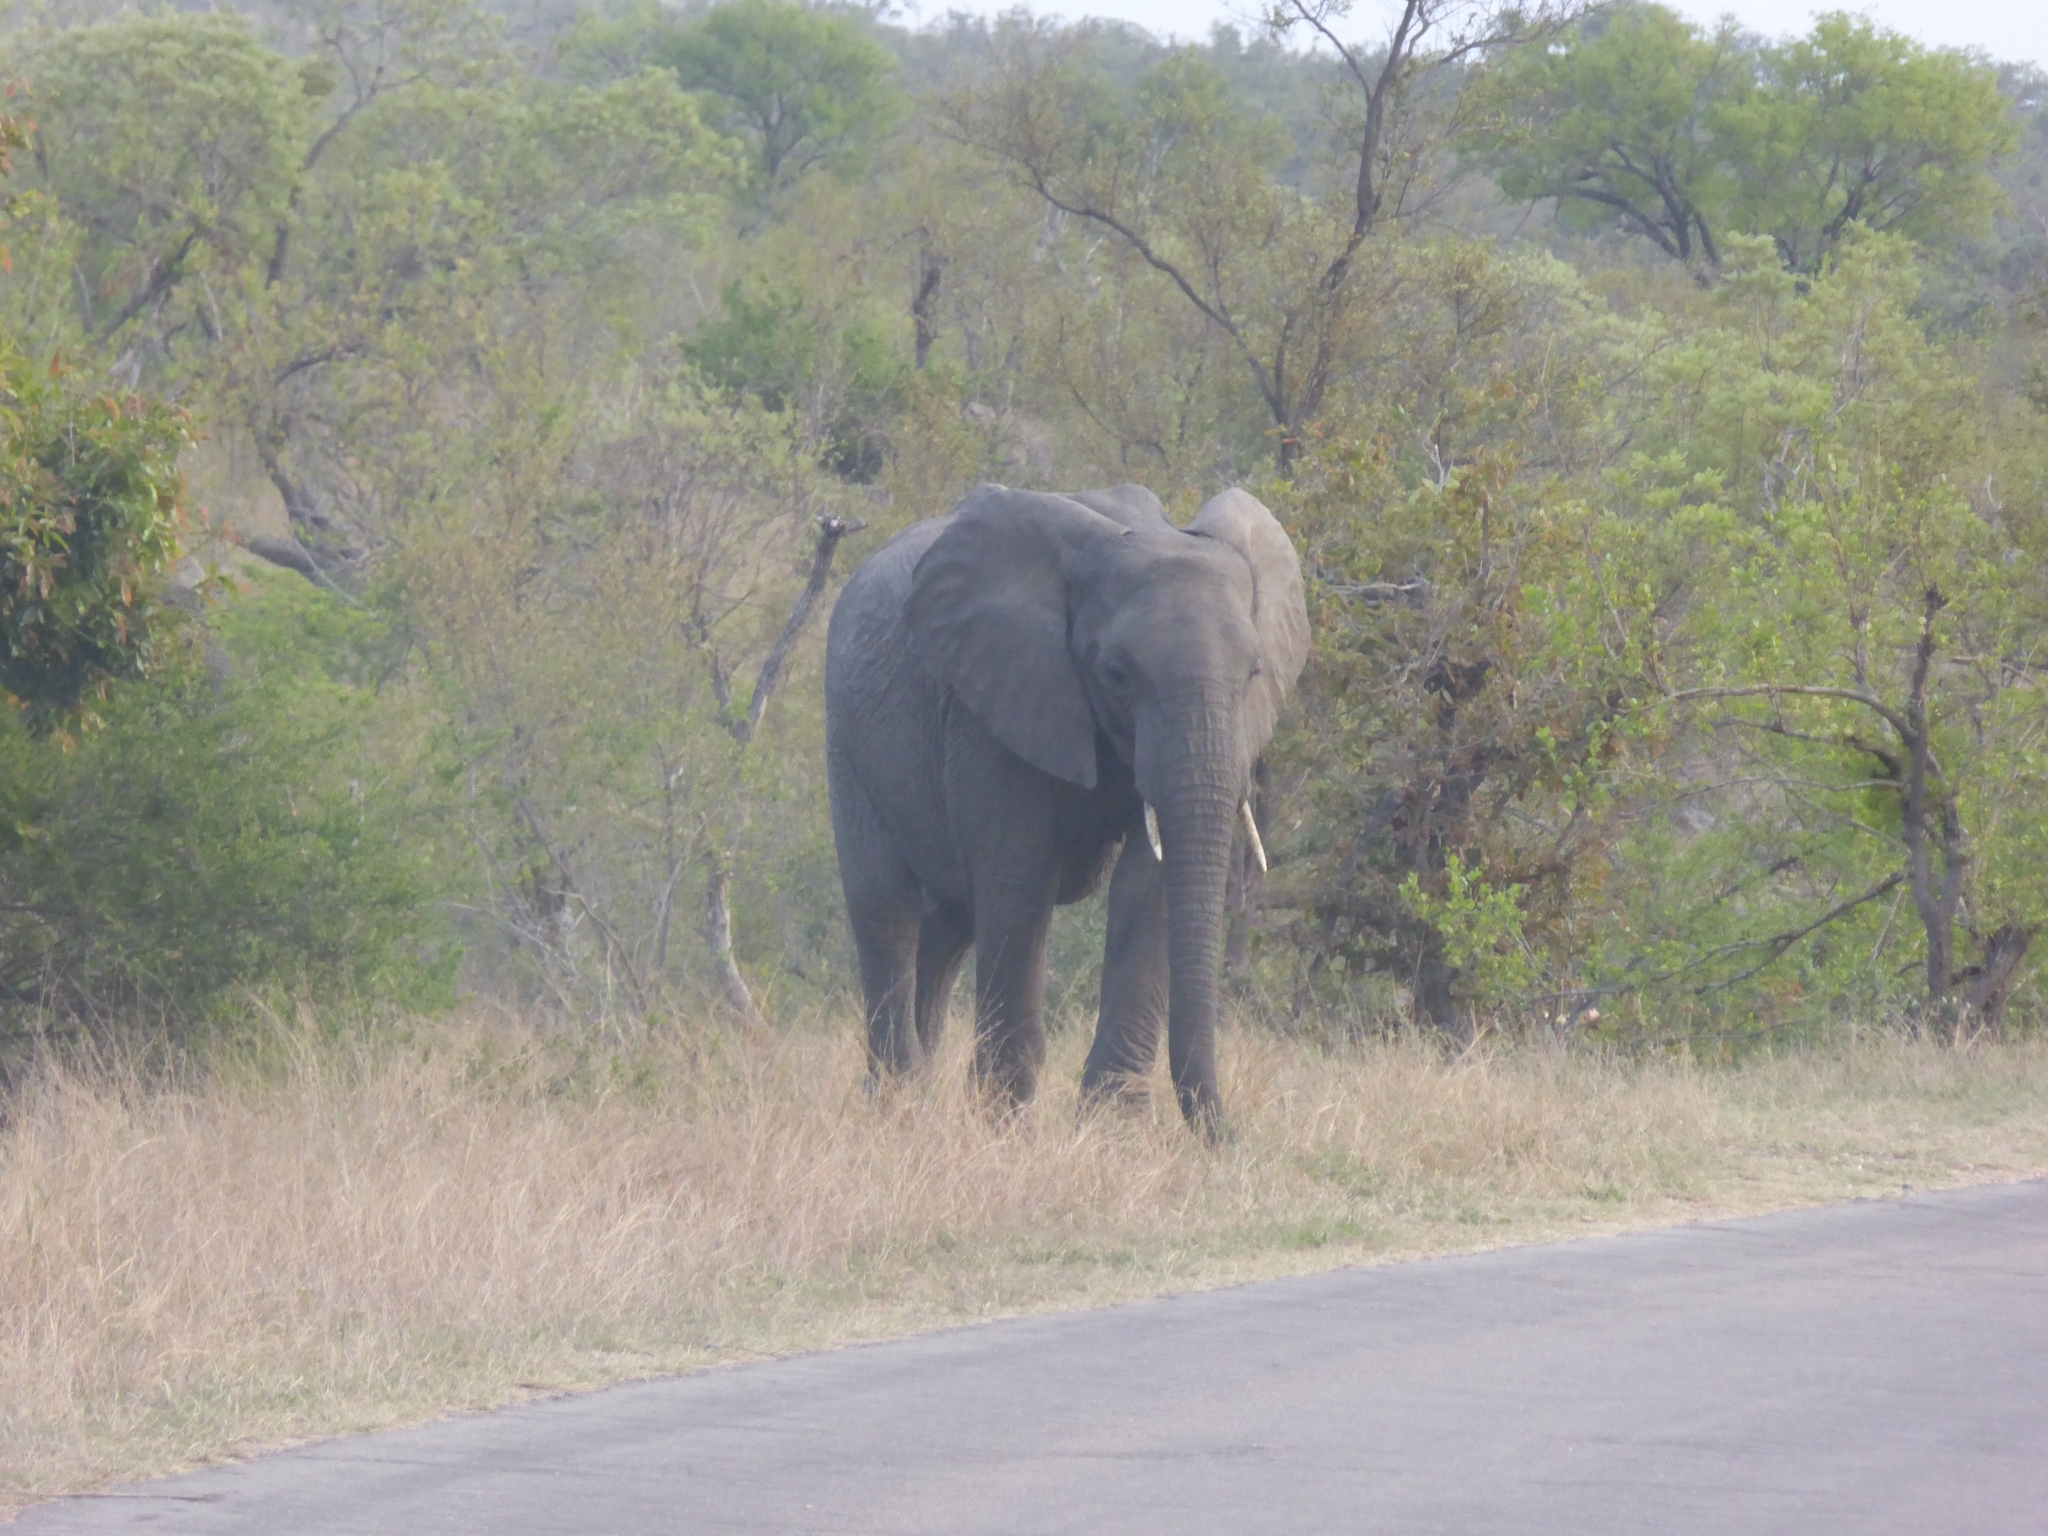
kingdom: Animalia
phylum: Chordata
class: Mammalia
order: Proboscidea
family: Elephantidae
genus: Loxodonta
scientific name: Loxodonta africana
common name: African elephant
